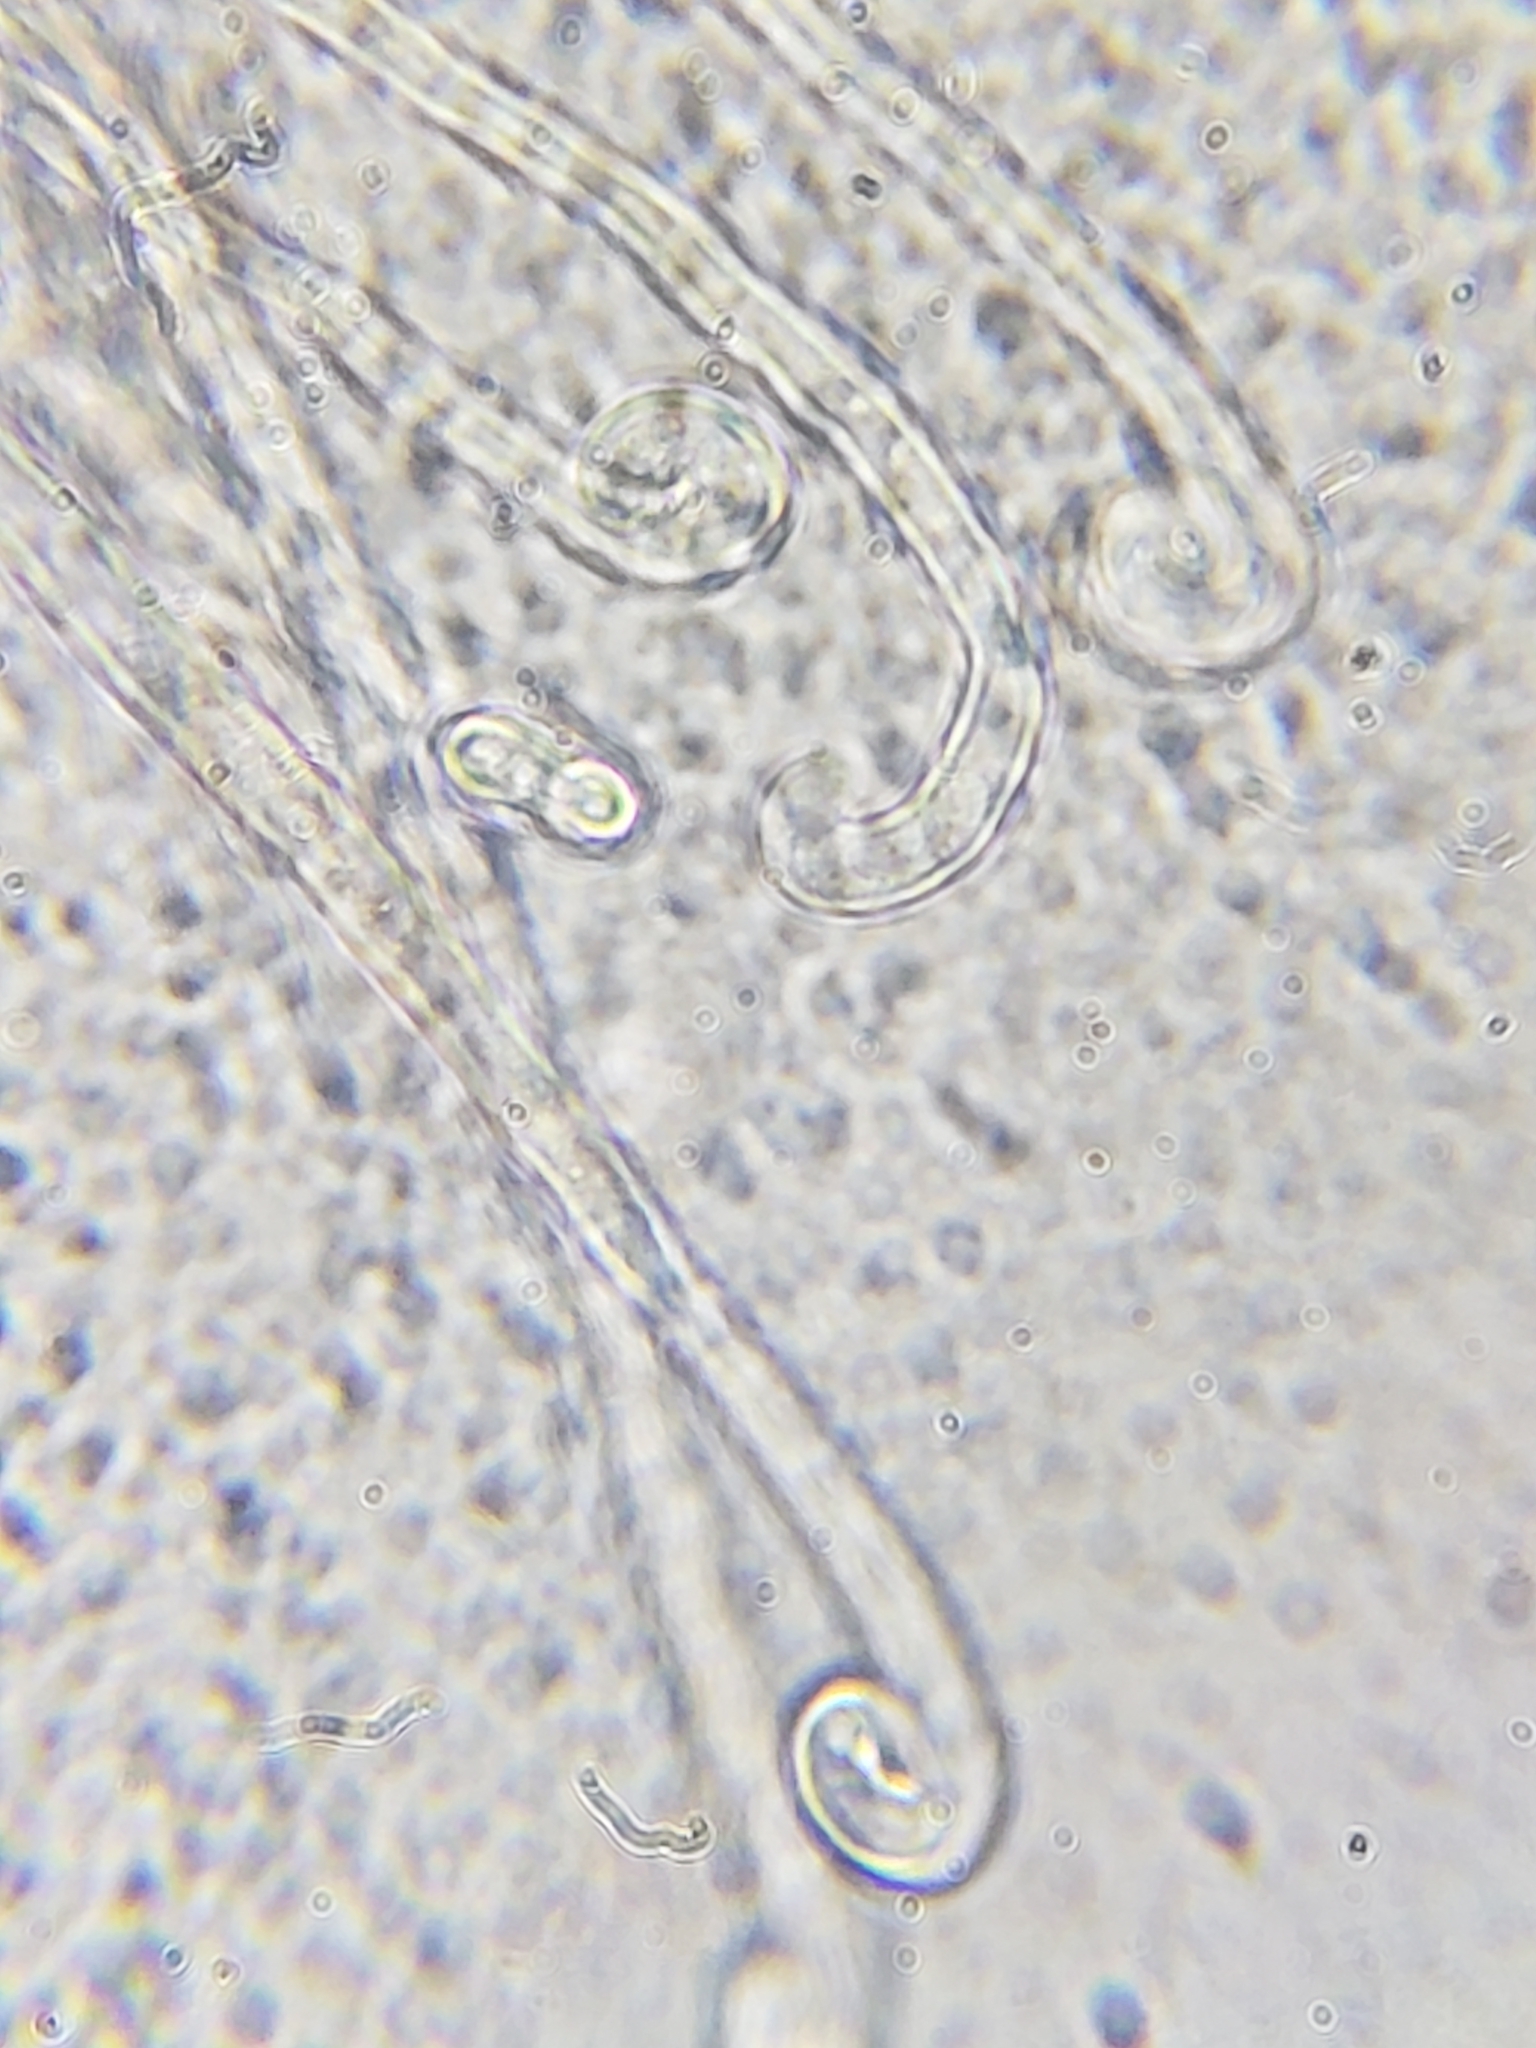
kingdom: Fungi
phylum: Ascomycota
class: Leotiomycetes
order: Helotiales
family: Erysiphaceae
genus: Sawadaea
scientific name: Sawadaea bicornis
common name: Maple mildew
